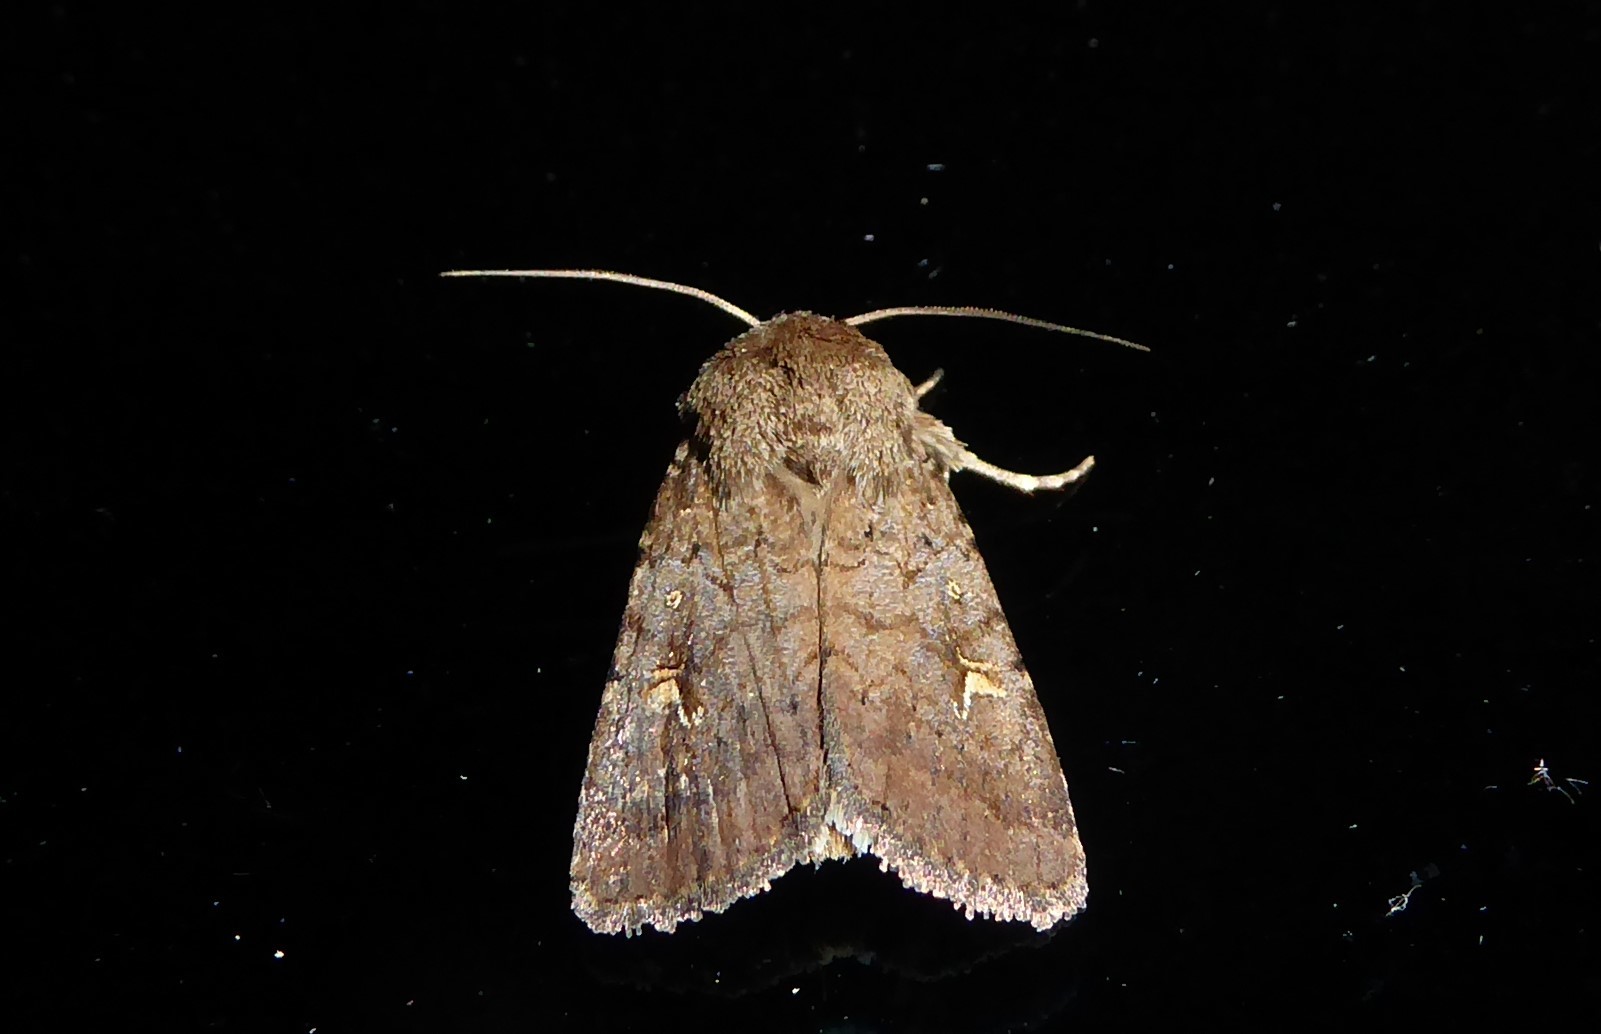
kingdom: Animalia
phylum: Arthropoda
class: Insecta
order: Lepidoptera
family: Noctuidae
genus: Proteuxoa
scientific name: Proteuxoa tetronycha
